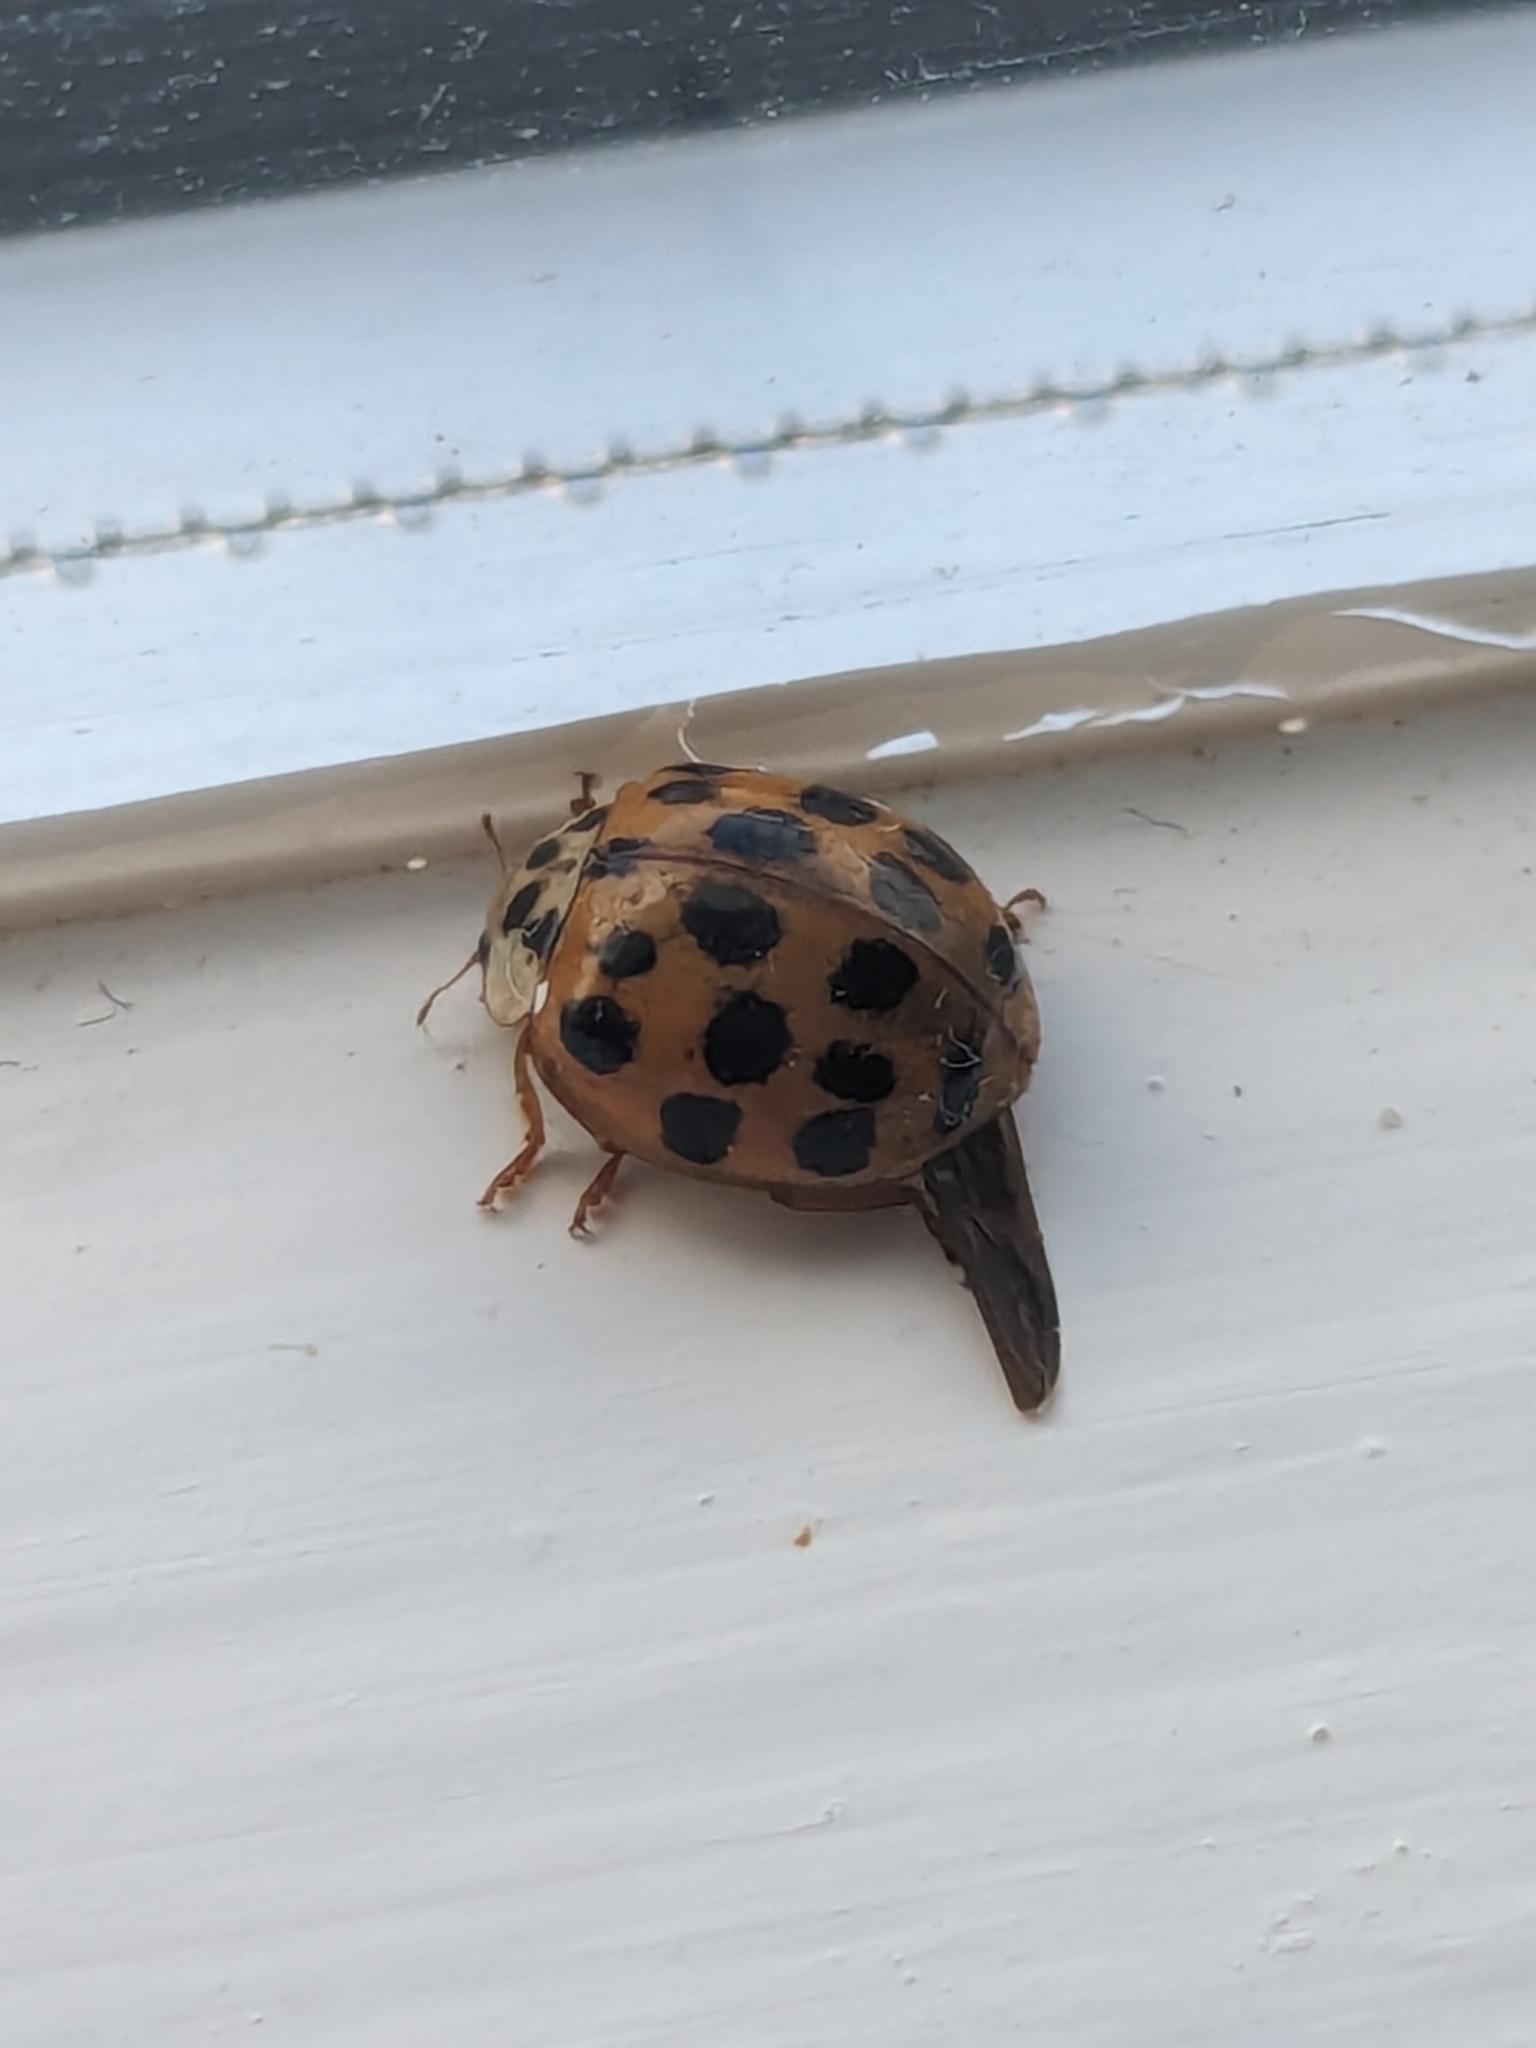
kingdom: Animalia
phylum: Arthropoda
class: Insecta
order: Coleoptera
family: Coccinellidae
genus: Harmonia
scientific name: Harmonia axyridis
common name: Harlequin ladybird
